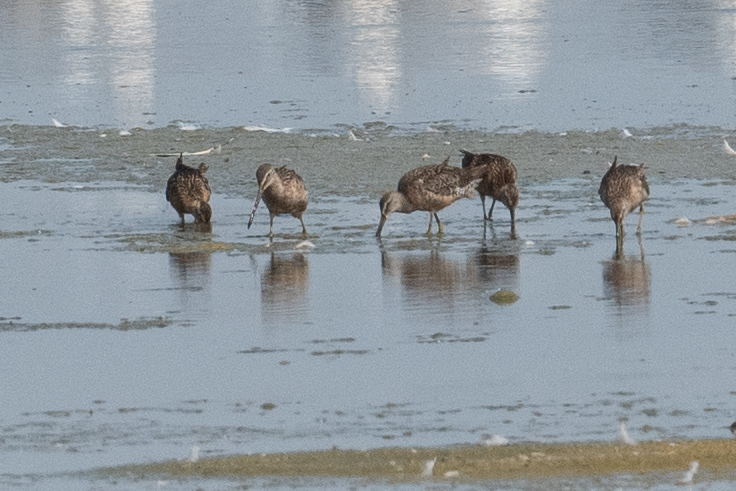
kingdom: Animalia
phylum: Chordata
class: Aves
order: Charadriiformes
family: Scolopacidae
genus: Limnodromus
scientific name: Limnodromus scolopaceus
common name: Long-billed dowitcher
